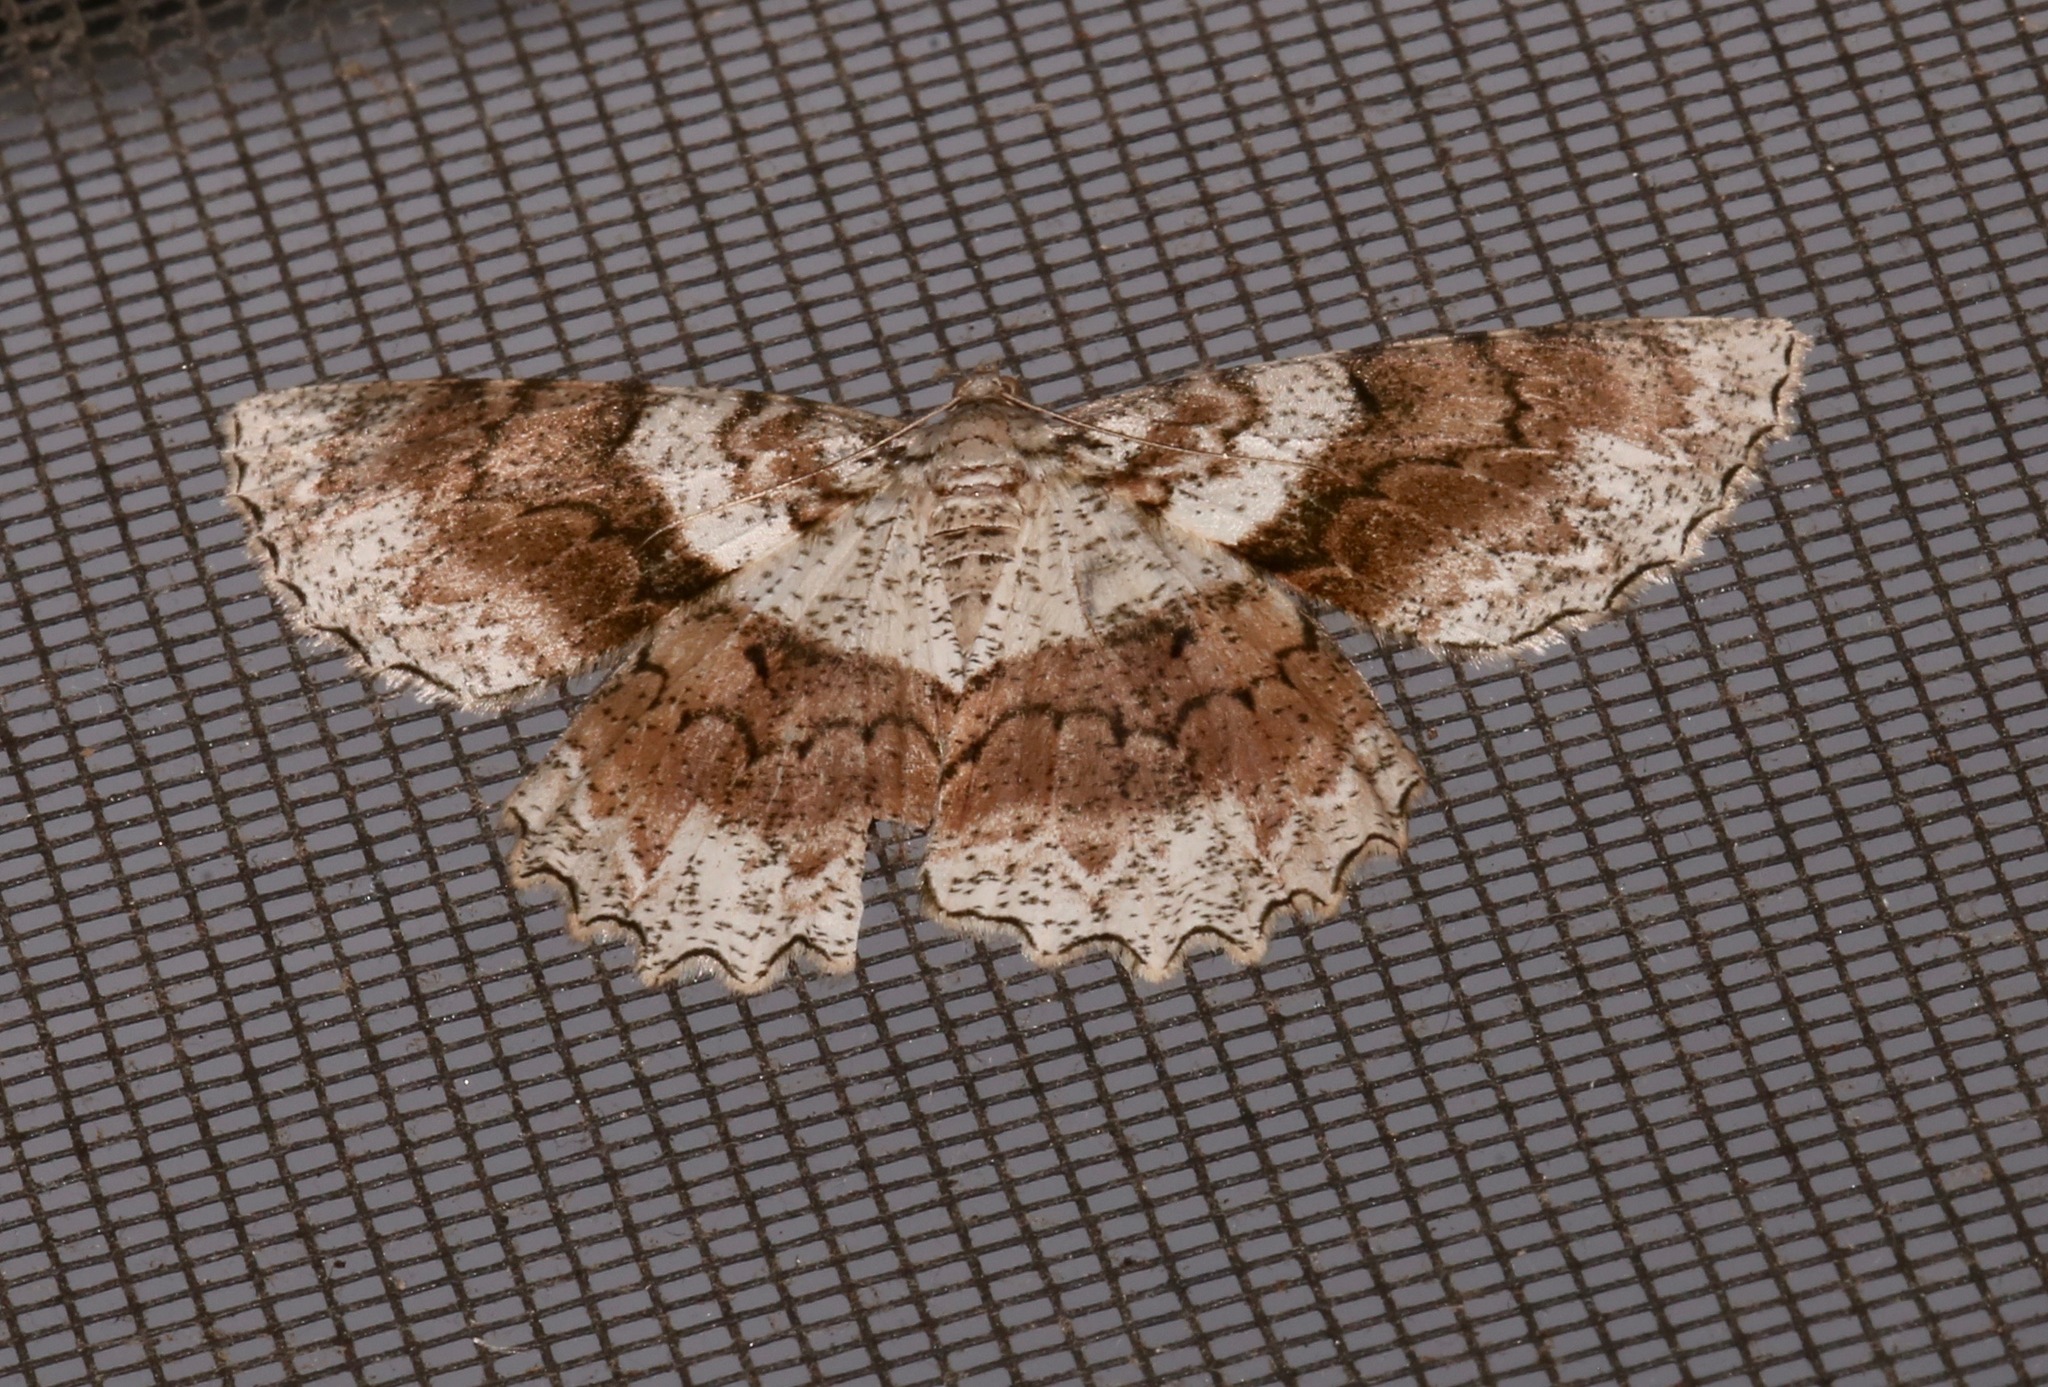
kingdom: Animalia
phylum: Arthropoda
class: Insecta
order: Lepidoptera
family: Geometridae
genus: Epimecis
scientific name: Epimecis hortaria
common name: Tulip-tree beauty
